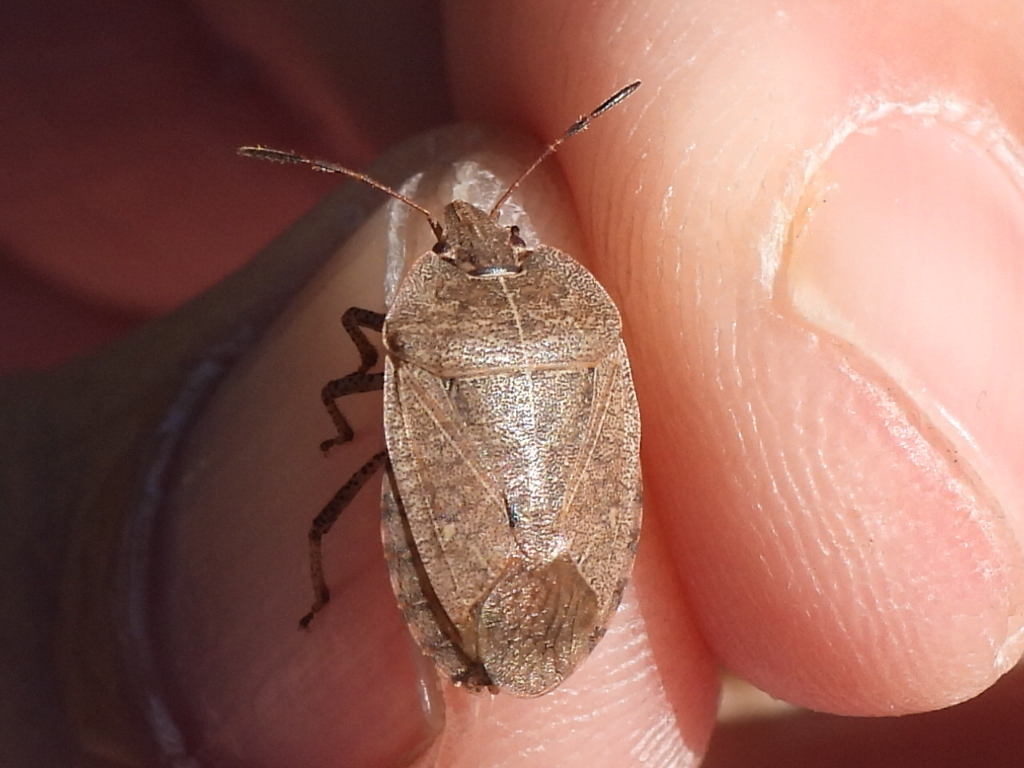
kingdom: Animalia
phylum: Arthropoda
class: Insecta
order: Hemiptera
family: Pentatomidae
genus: Menecles
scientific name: Menecles insertus
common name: Elf shoe stink bug
